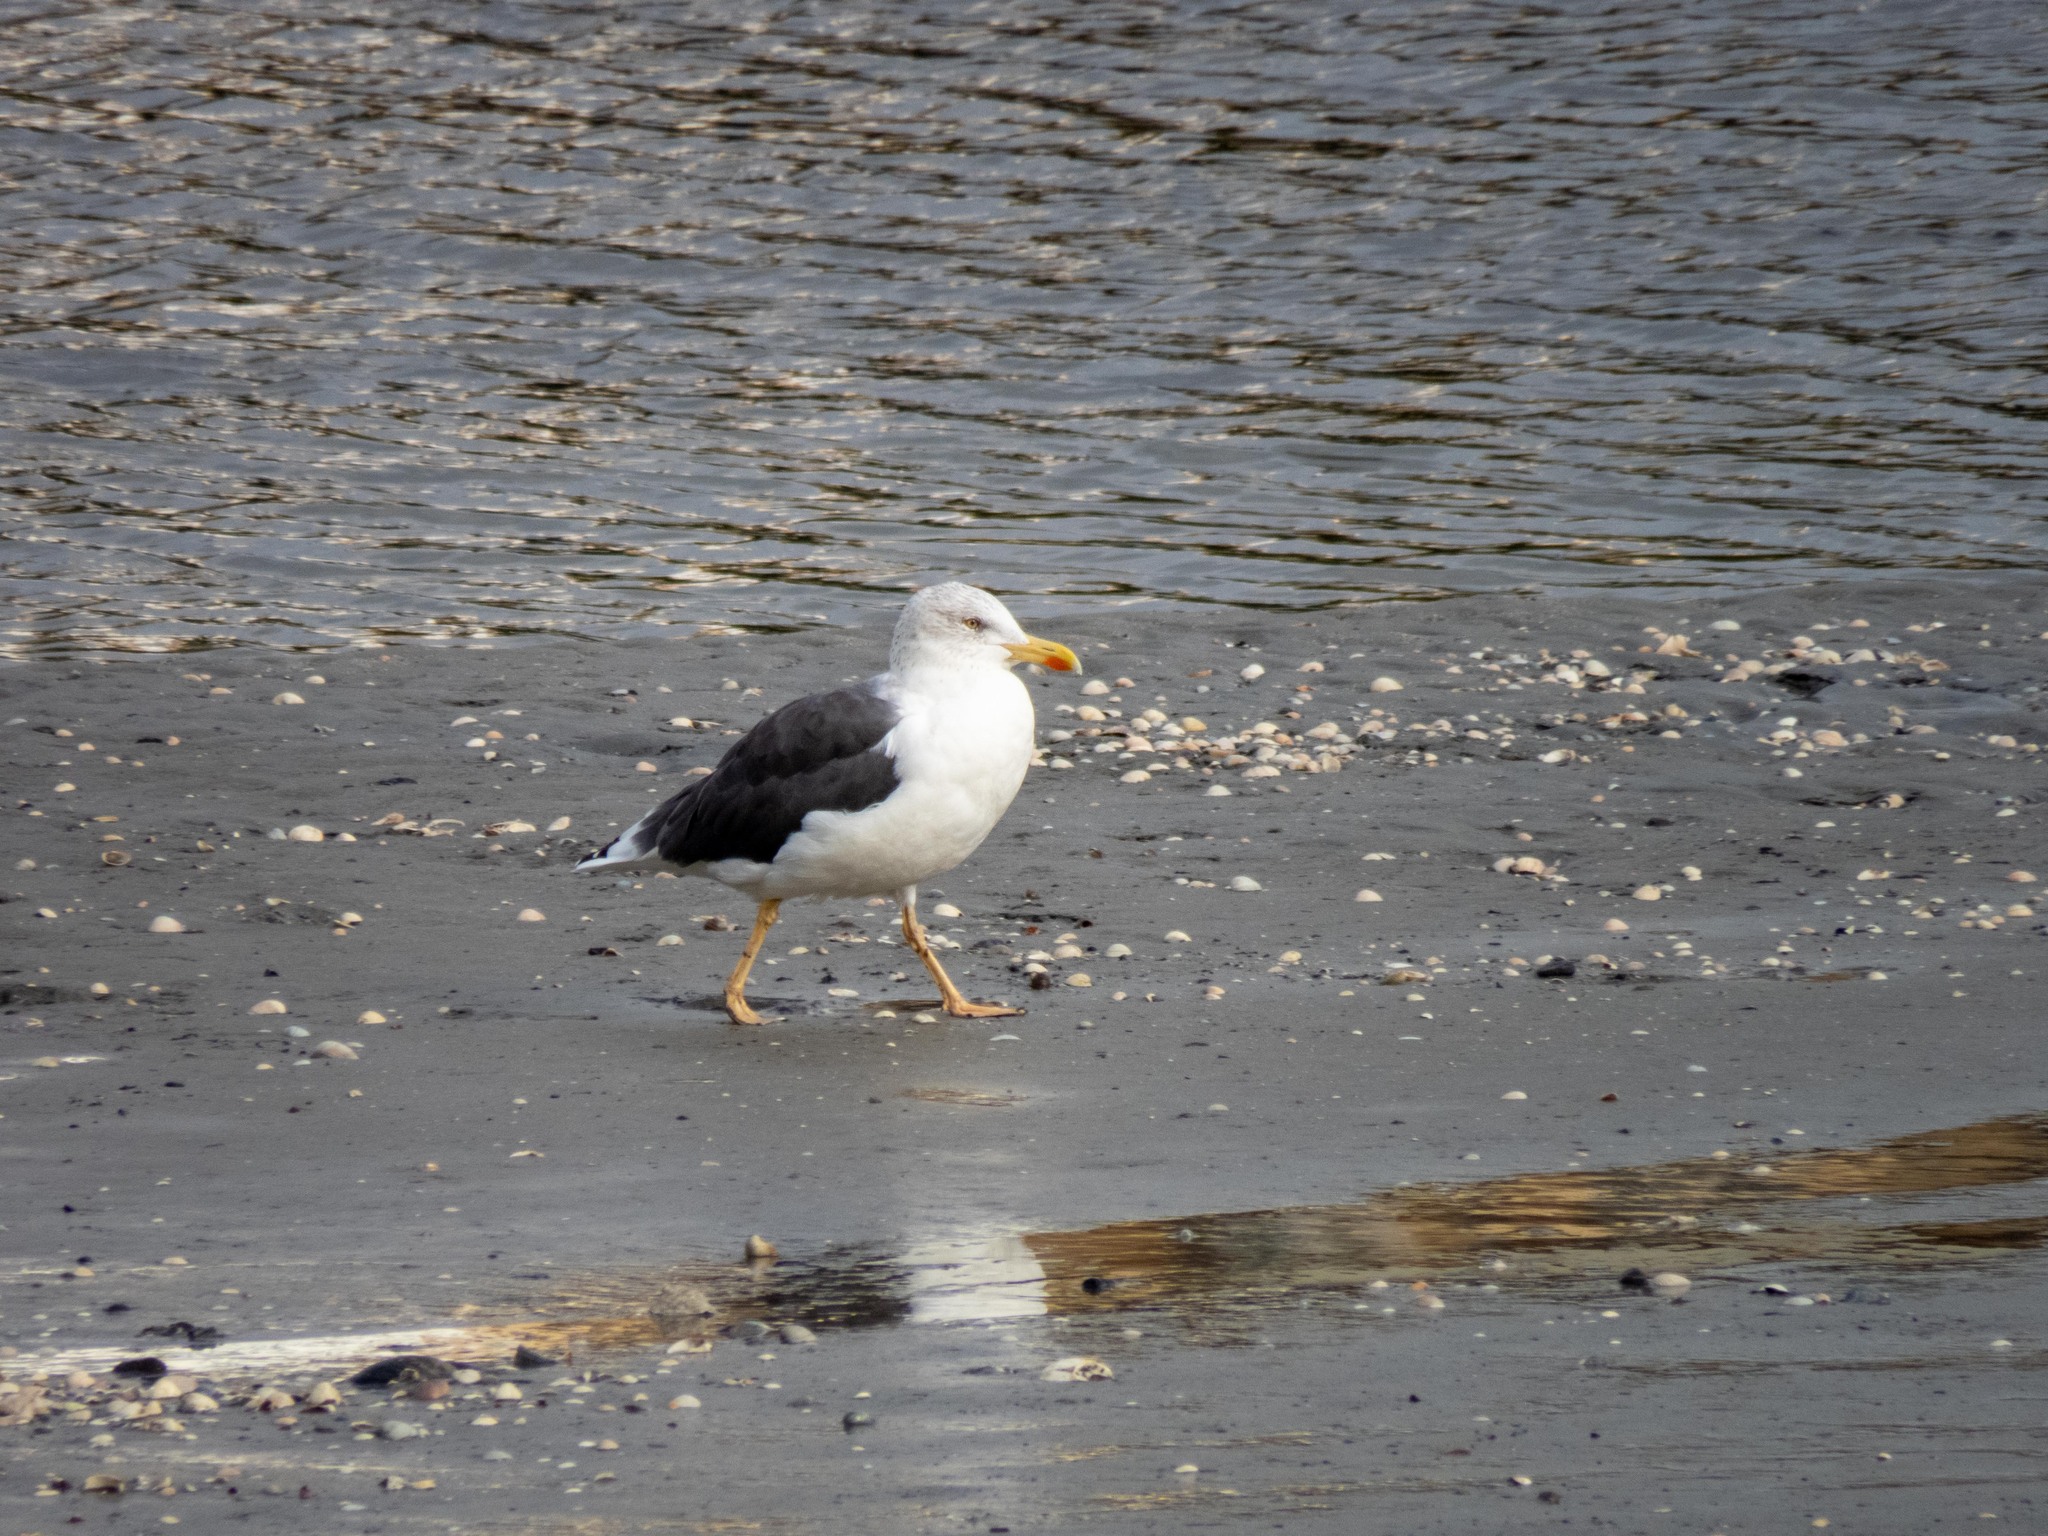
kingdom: Animalia
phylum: Chordata
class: Aves
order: Charadriiformes
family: Laridae
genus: Larus
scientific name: Larus fuscus
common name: Lesser black-backed gull
